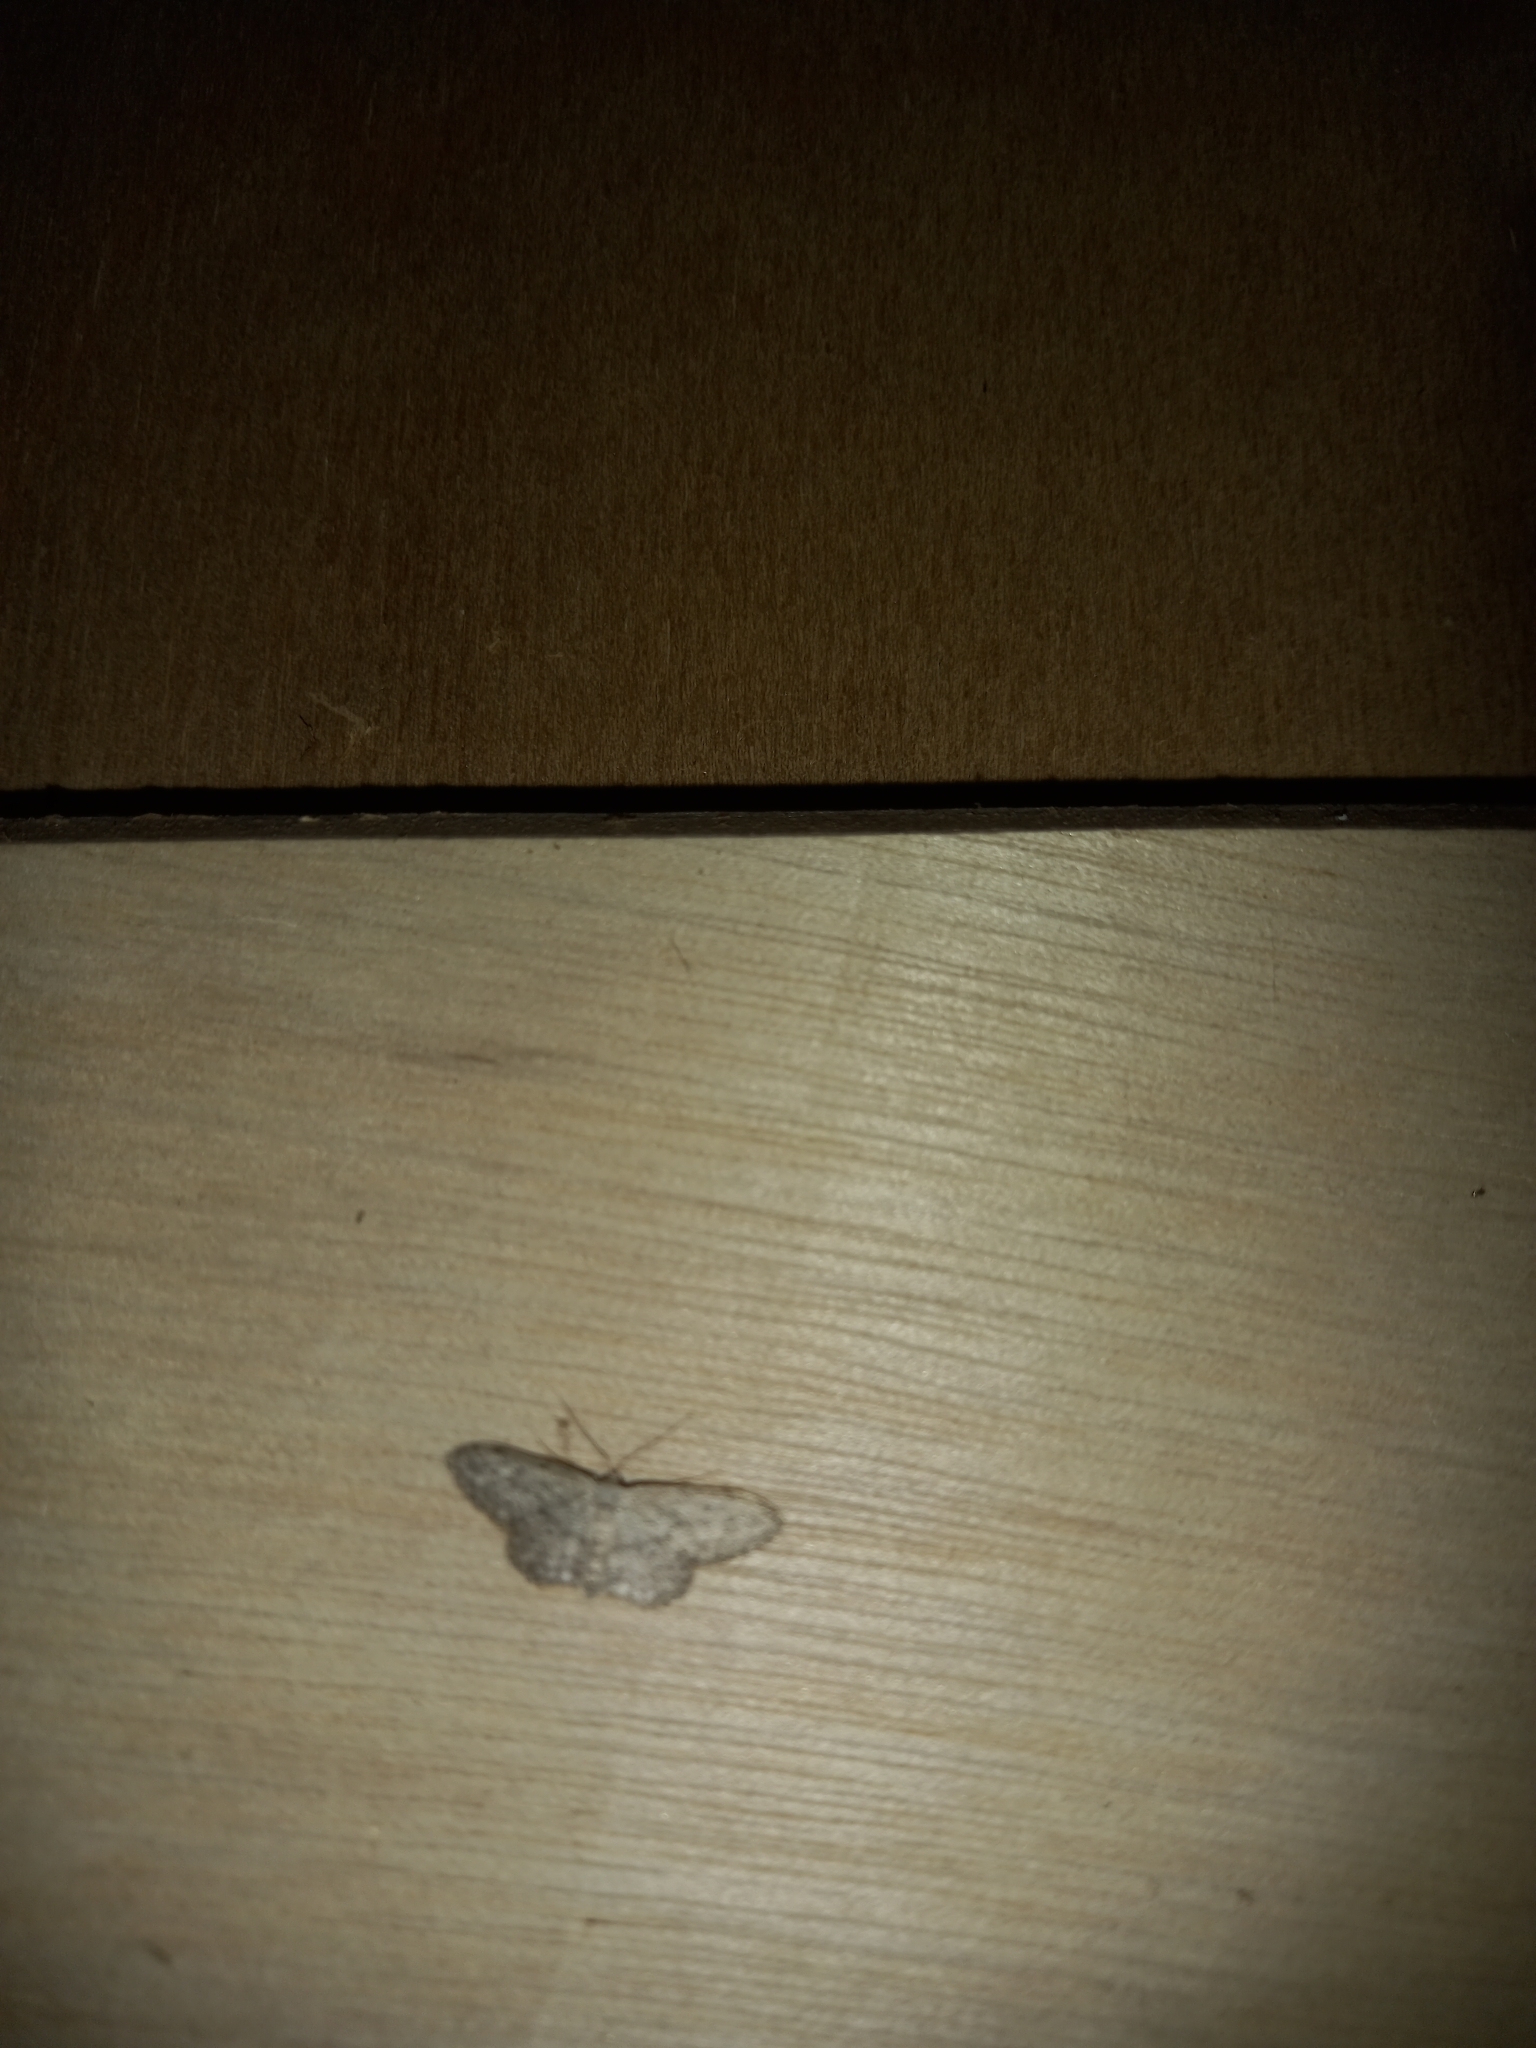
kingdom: Animalia
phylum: Arthropoda
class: Insecta
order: Lepidoptera
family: Geometridae
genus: Idaea
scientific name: Idaea seriata
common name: Small dusty wave
